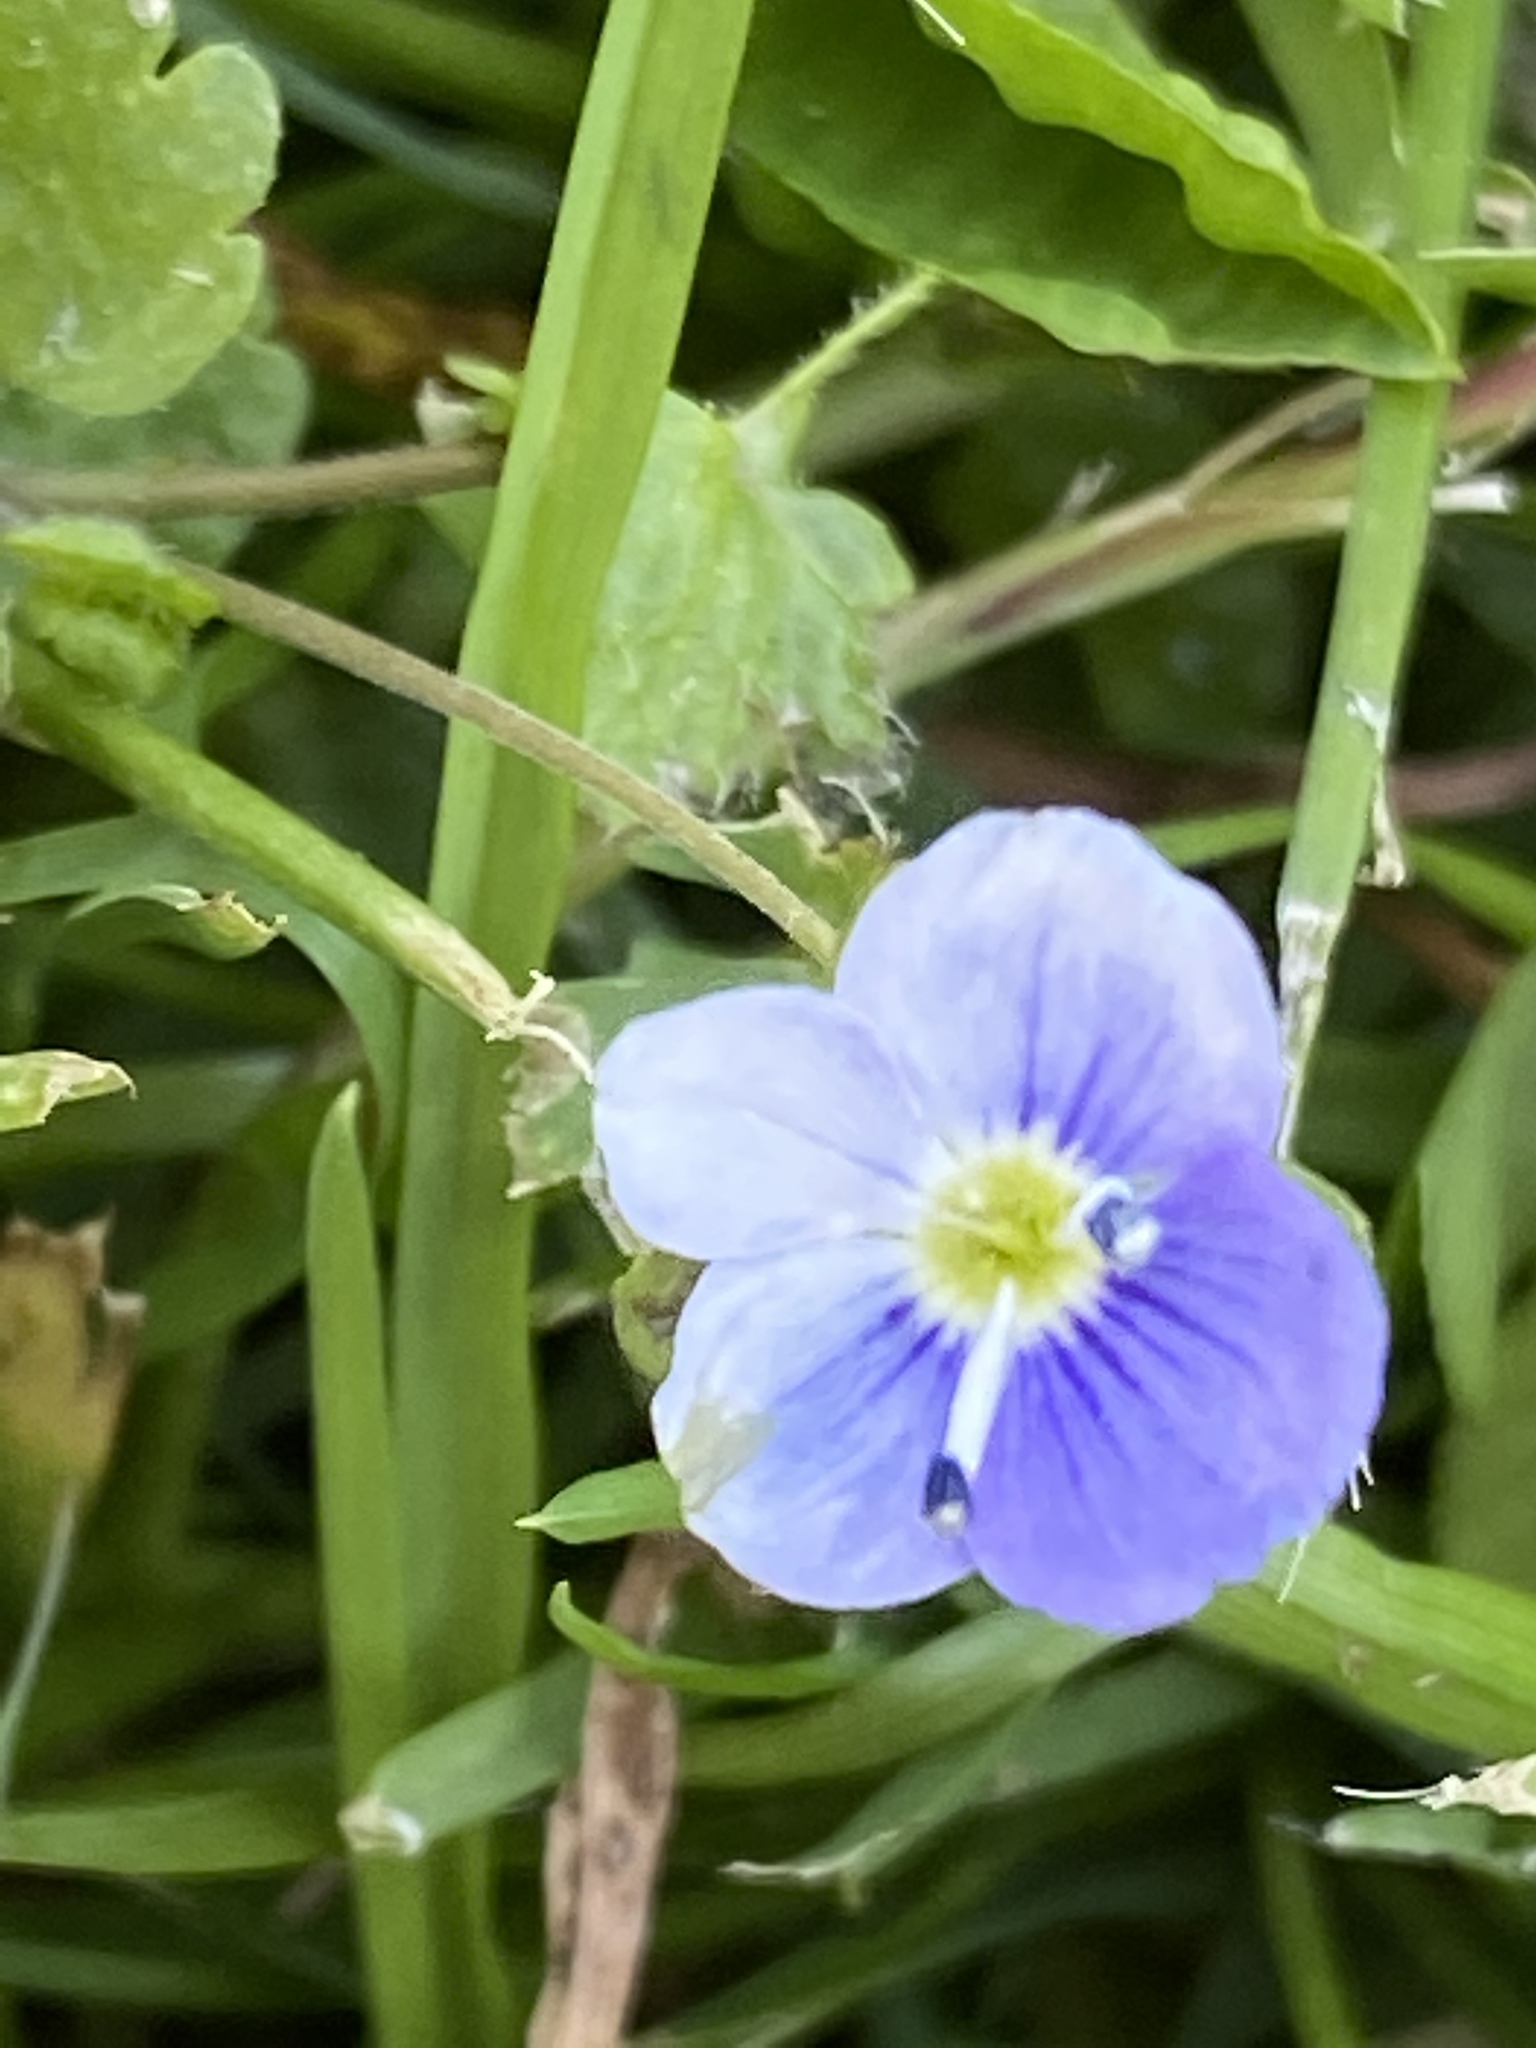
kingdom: Plantae
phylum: Tracheophyta
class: Magnoliopsida
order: Lamiales
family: Plantaginaceae
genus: Veronica
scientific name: Veronica persica
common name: Common field-speedwell
